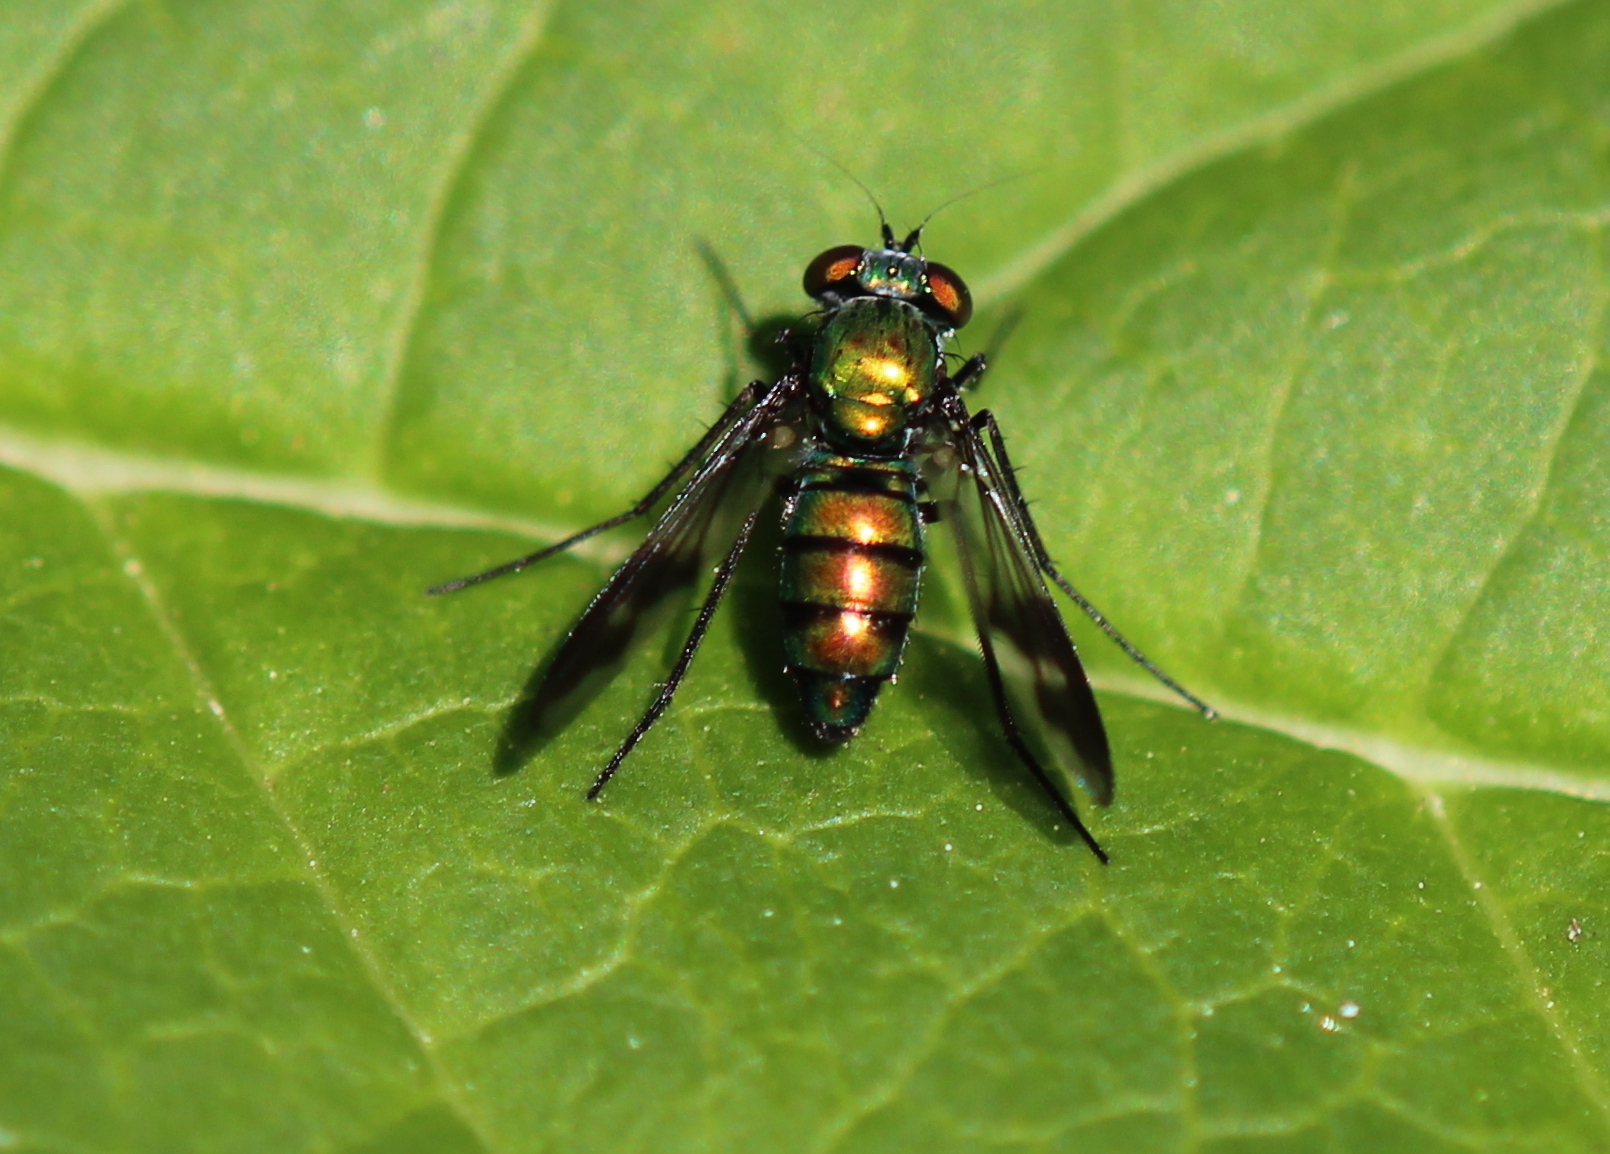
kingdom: Animalia
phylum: Arthropoda
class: Insecta
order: Diptera
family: Dolichopodidae
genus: Condylostylus
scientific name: Condylostylus patibulatus
